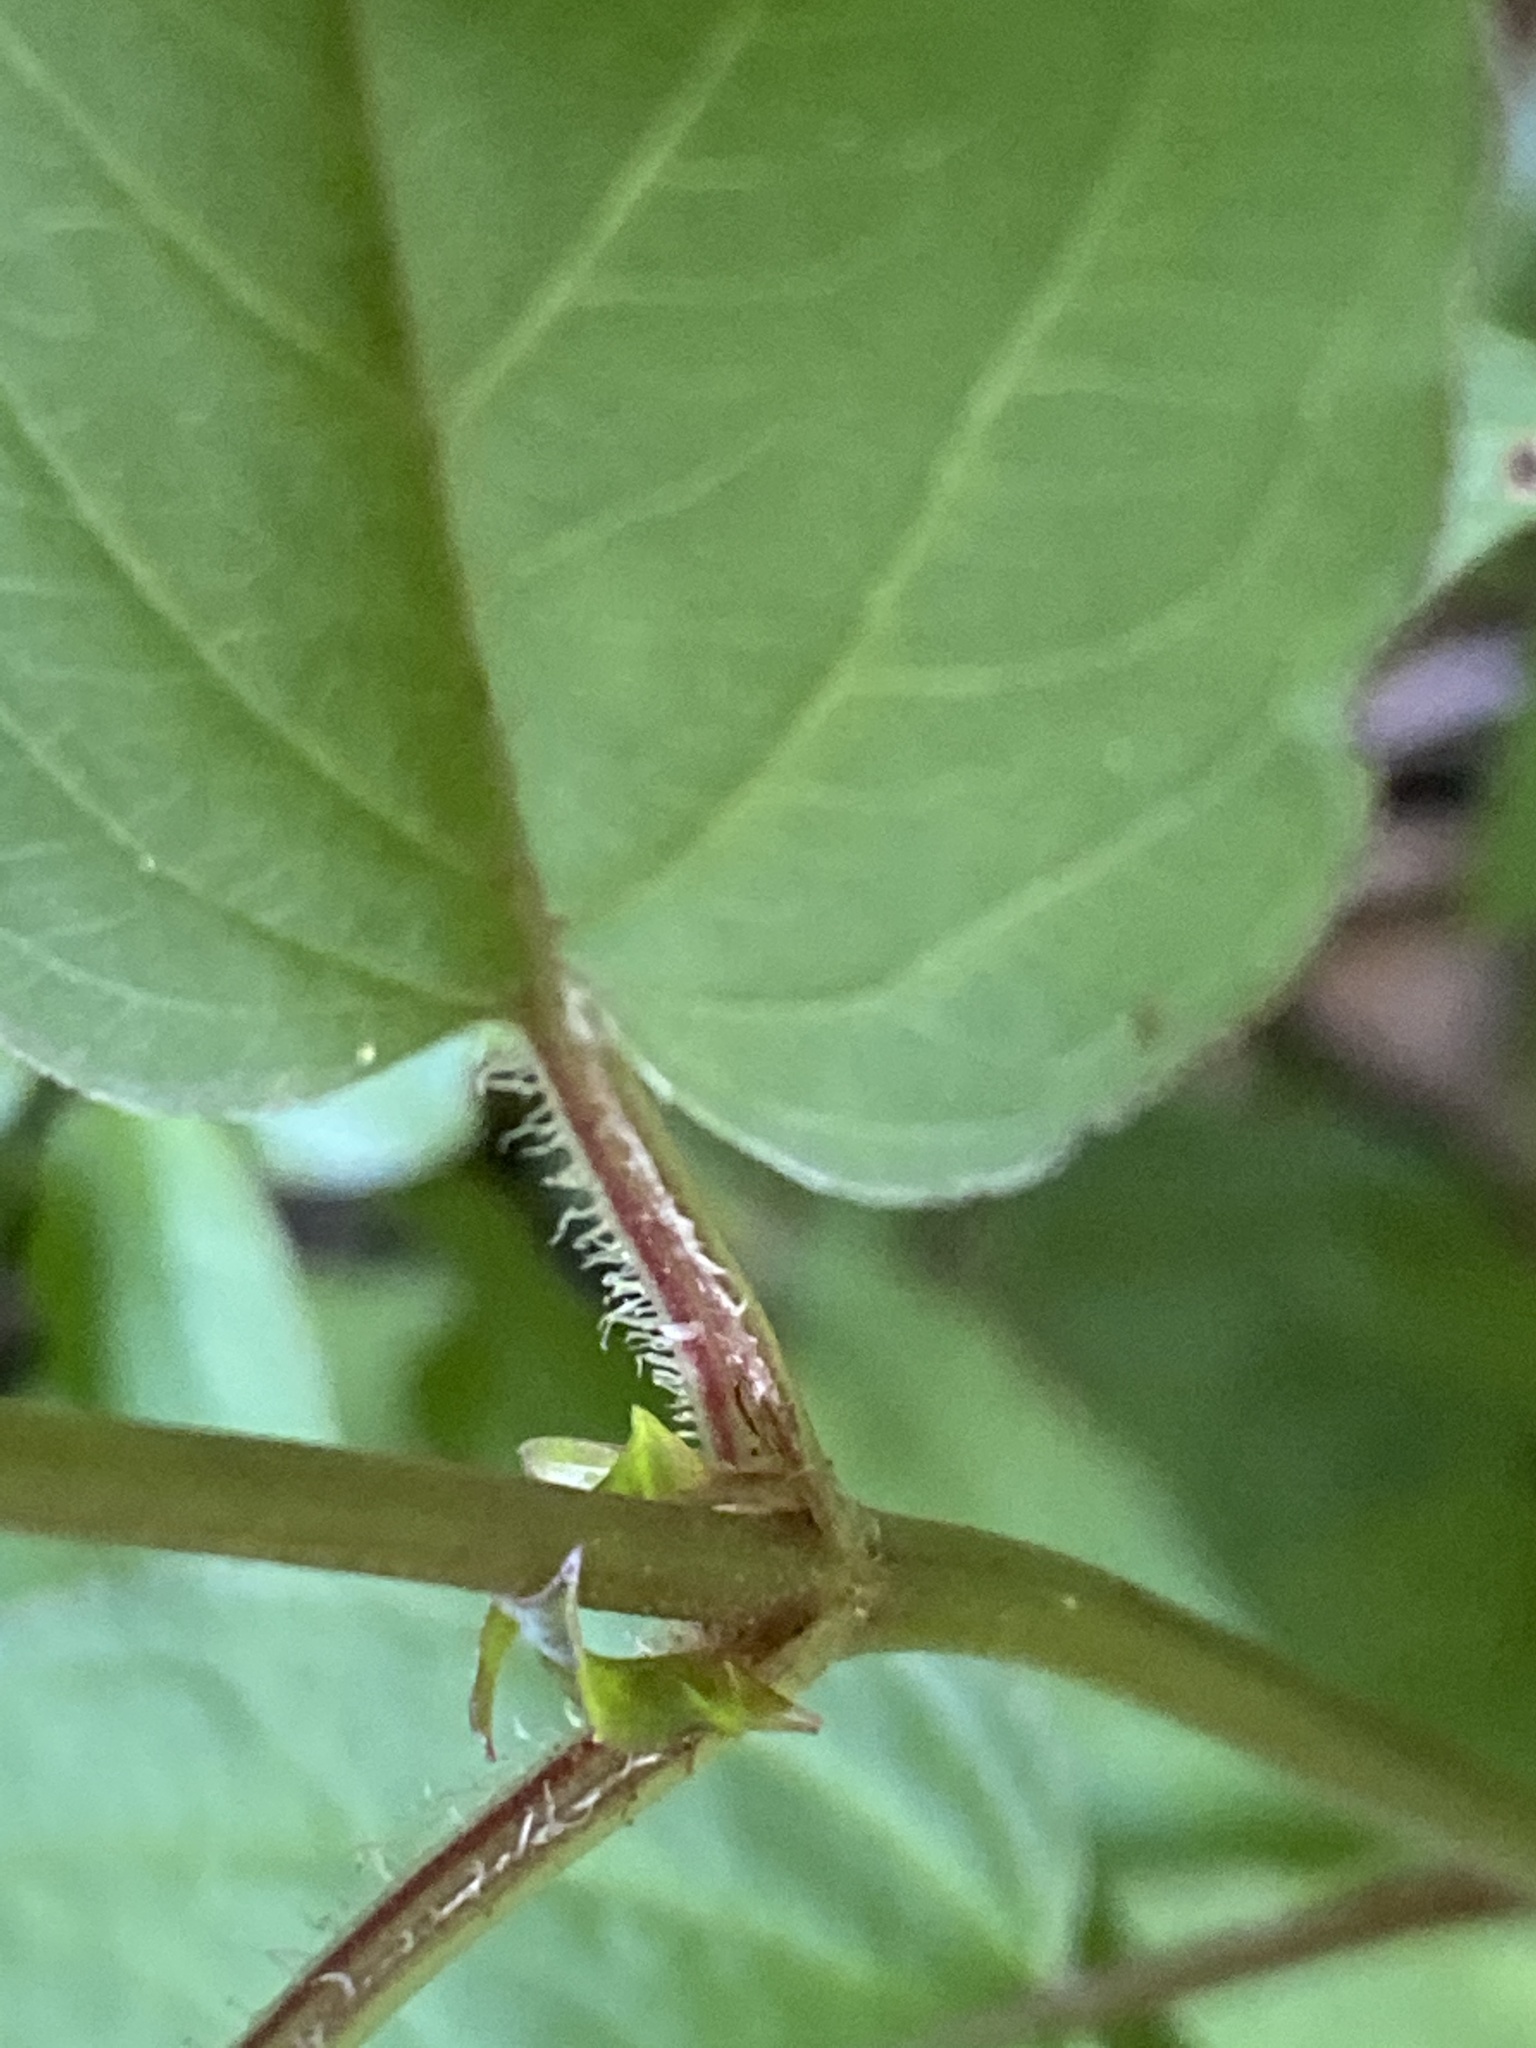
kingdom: Plantae
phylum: Tracheophyta
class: Magnoliopsida
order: Ericales
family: Primulaceae
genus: Lysimachia
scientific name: Lysimachia ciliata
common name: Fringed loosestrife
